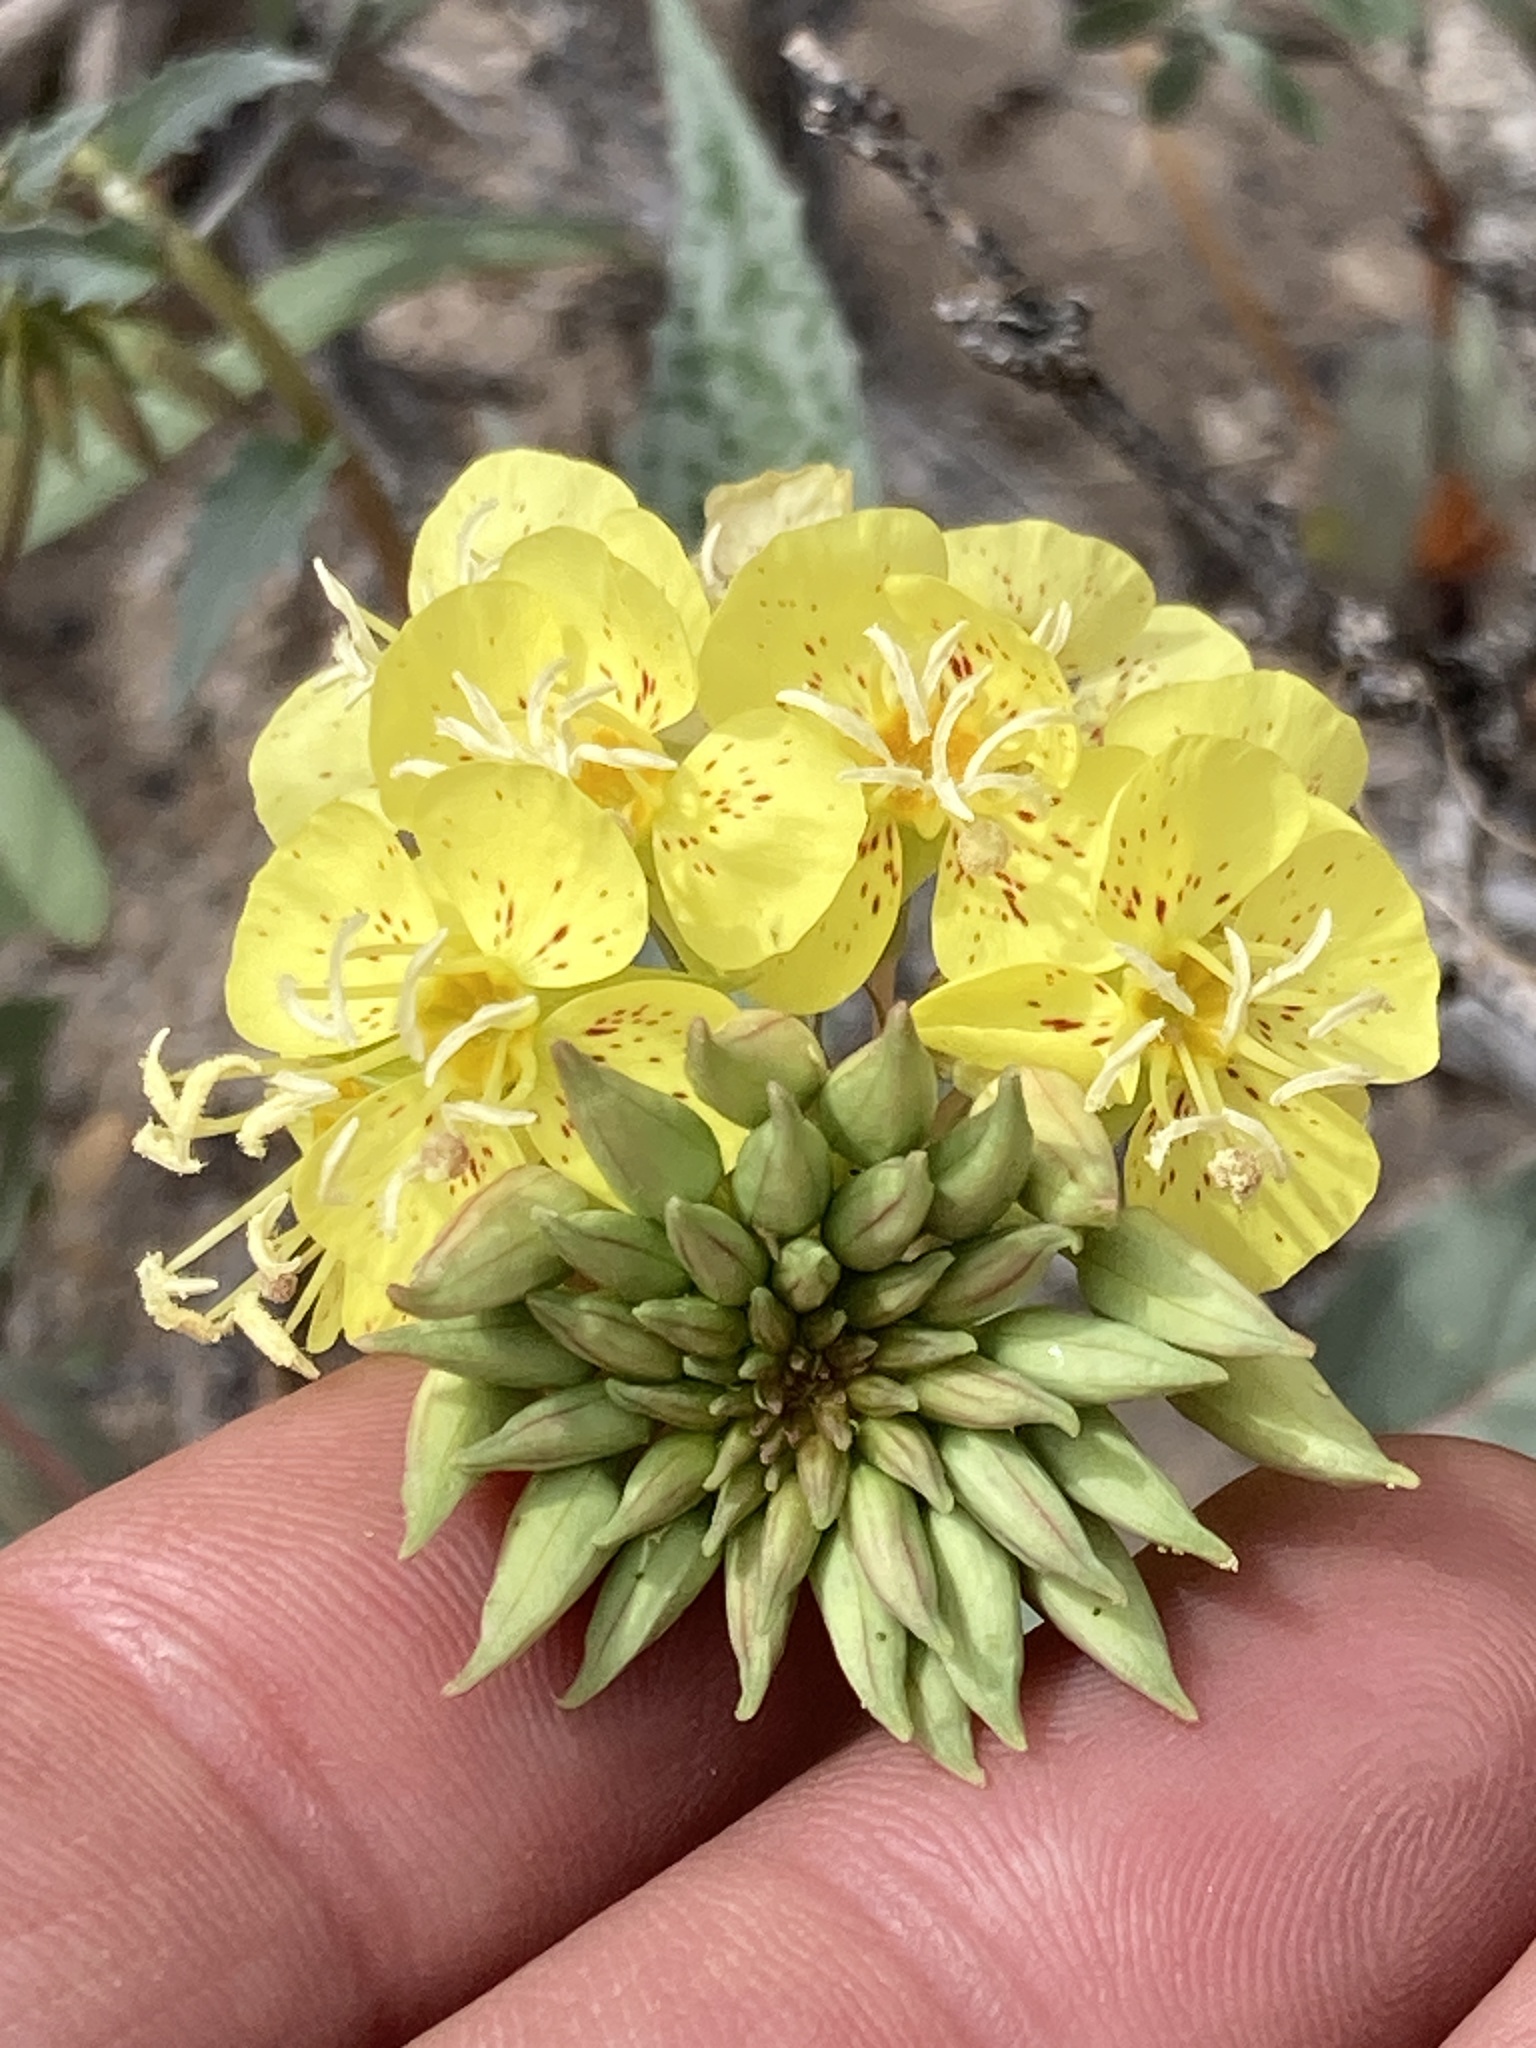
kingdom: Plantae
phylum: Tracheophyta
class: Magnoliopsida
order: Myrtales
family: Onagraceae
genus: Chylismia
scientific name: Chylismia claviformis
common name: Browneyes
